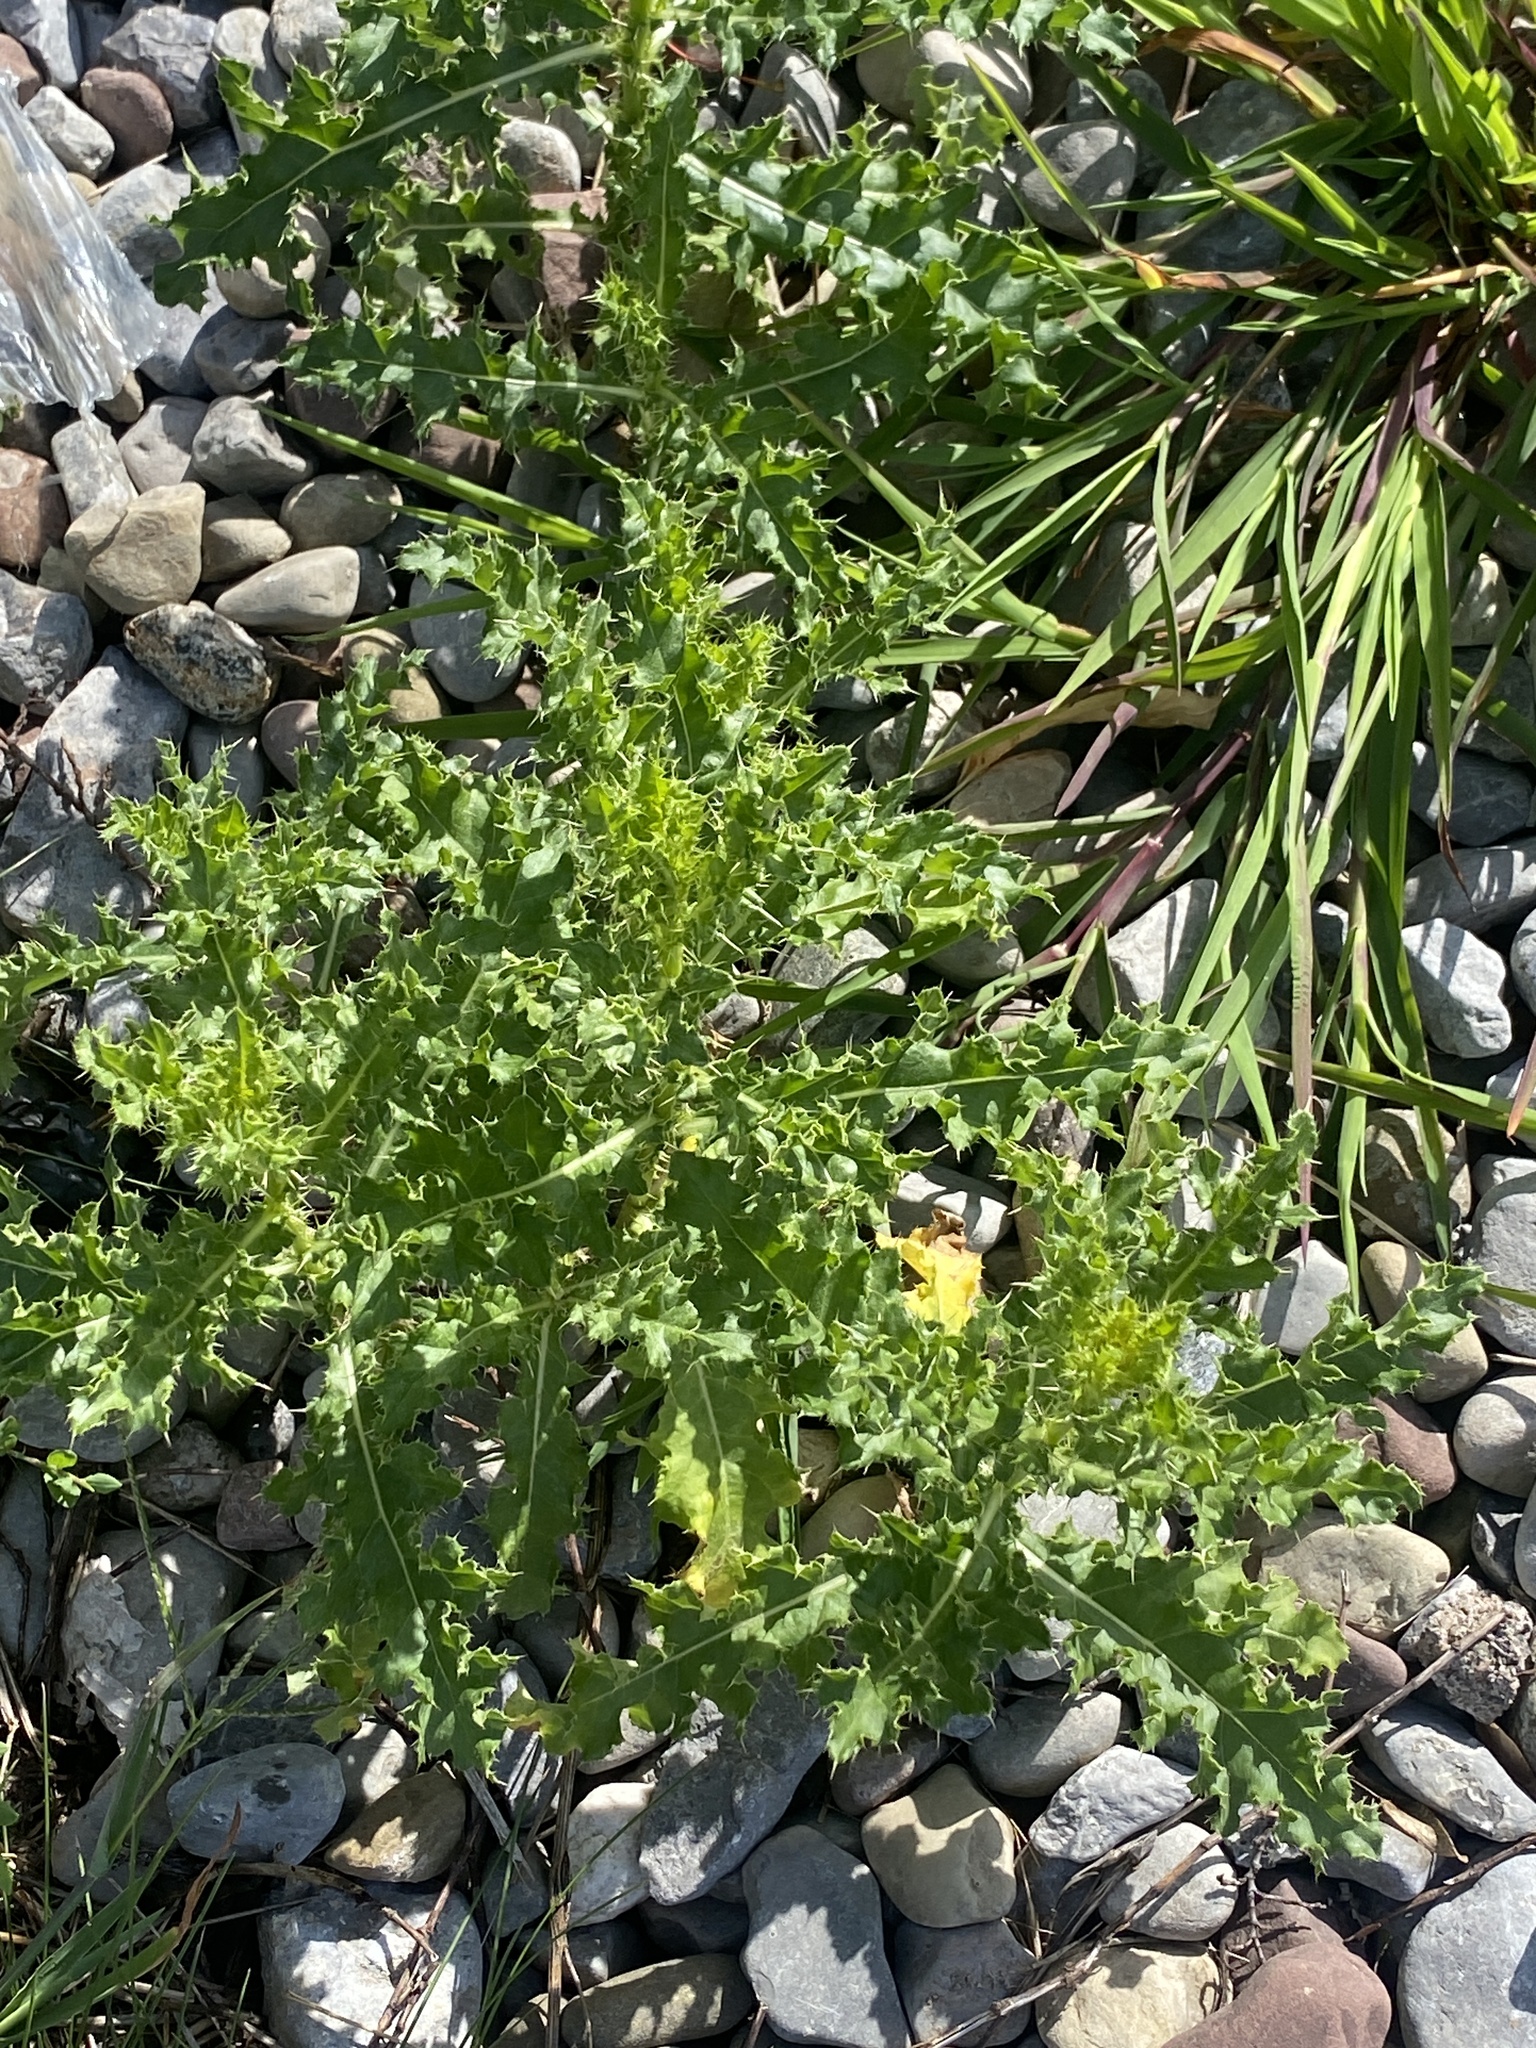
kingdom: Plantae
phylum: Tracheophyta
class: Magnoliopsida
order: Asterales
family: Asteraceae
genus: Cirsium
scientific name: Cirsium arvense
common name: Creeping thistle
